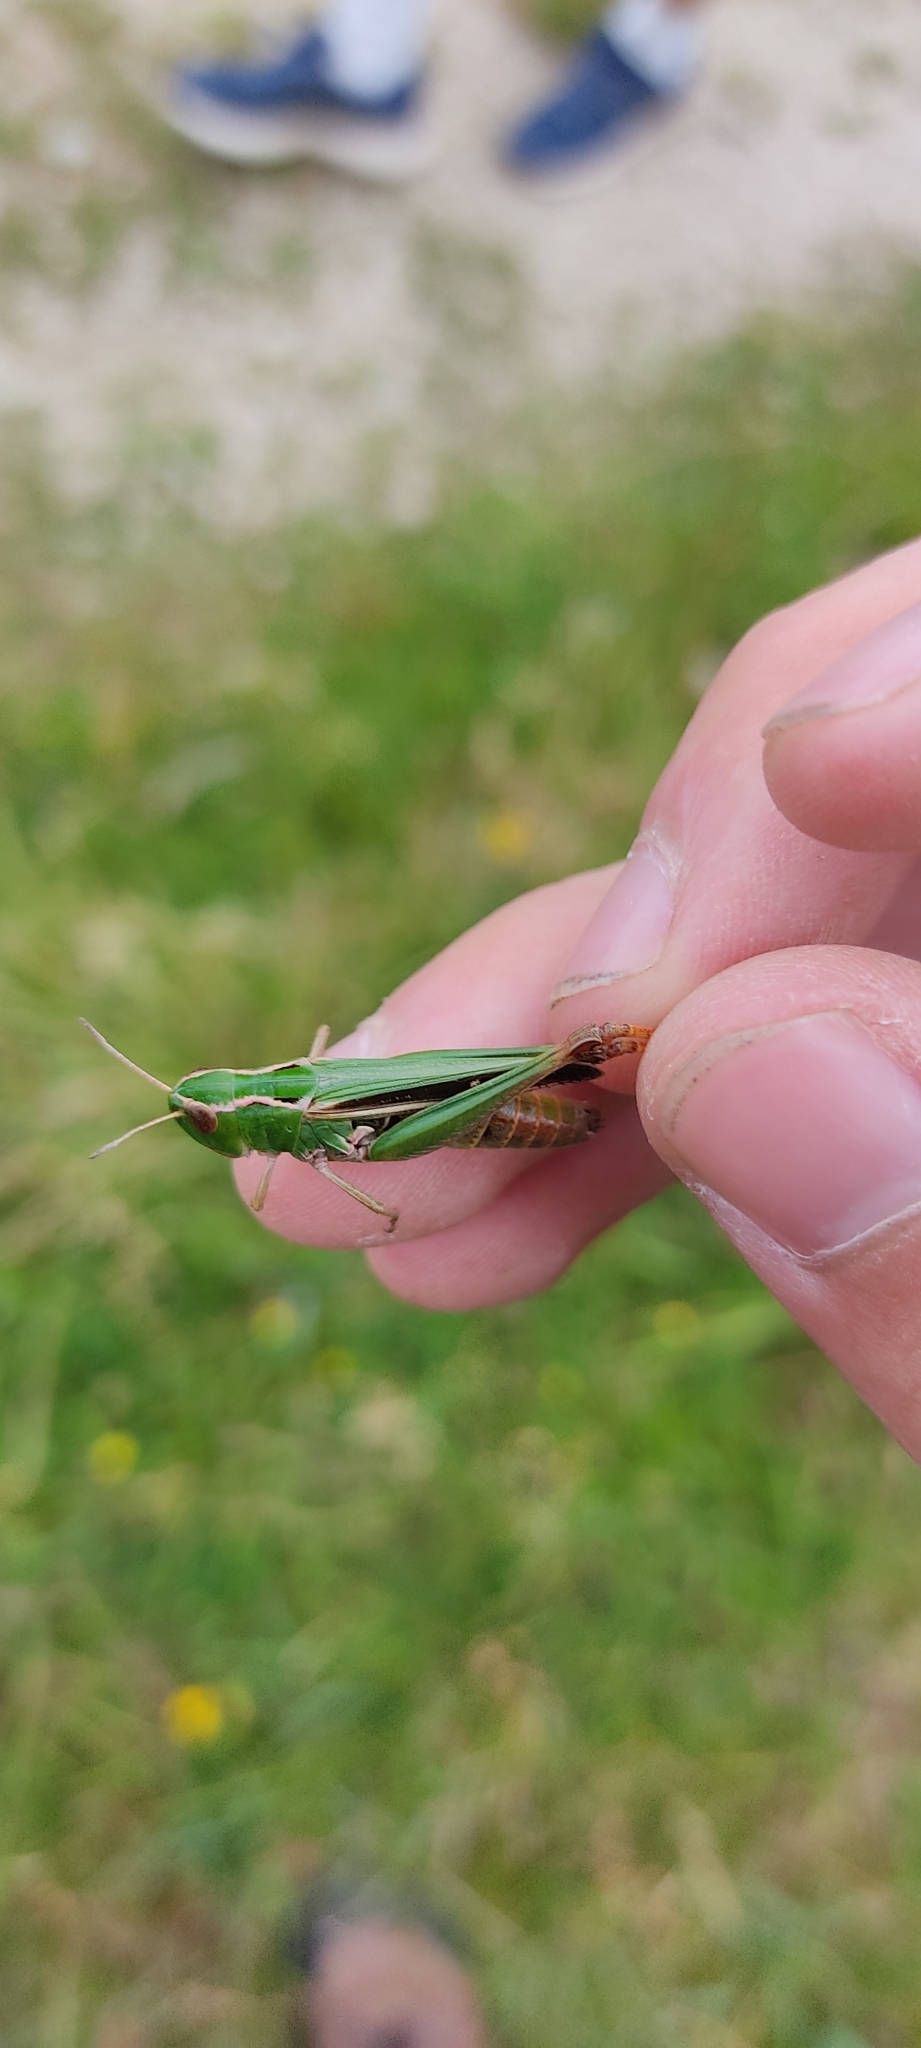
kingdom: Animalia
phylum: Arthropoda
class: Insecta
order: Orthoptera
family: Acrididae
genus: Stenobothrus
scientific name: Stenobothrus lineatus
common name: Stripe-winged grasshopper
